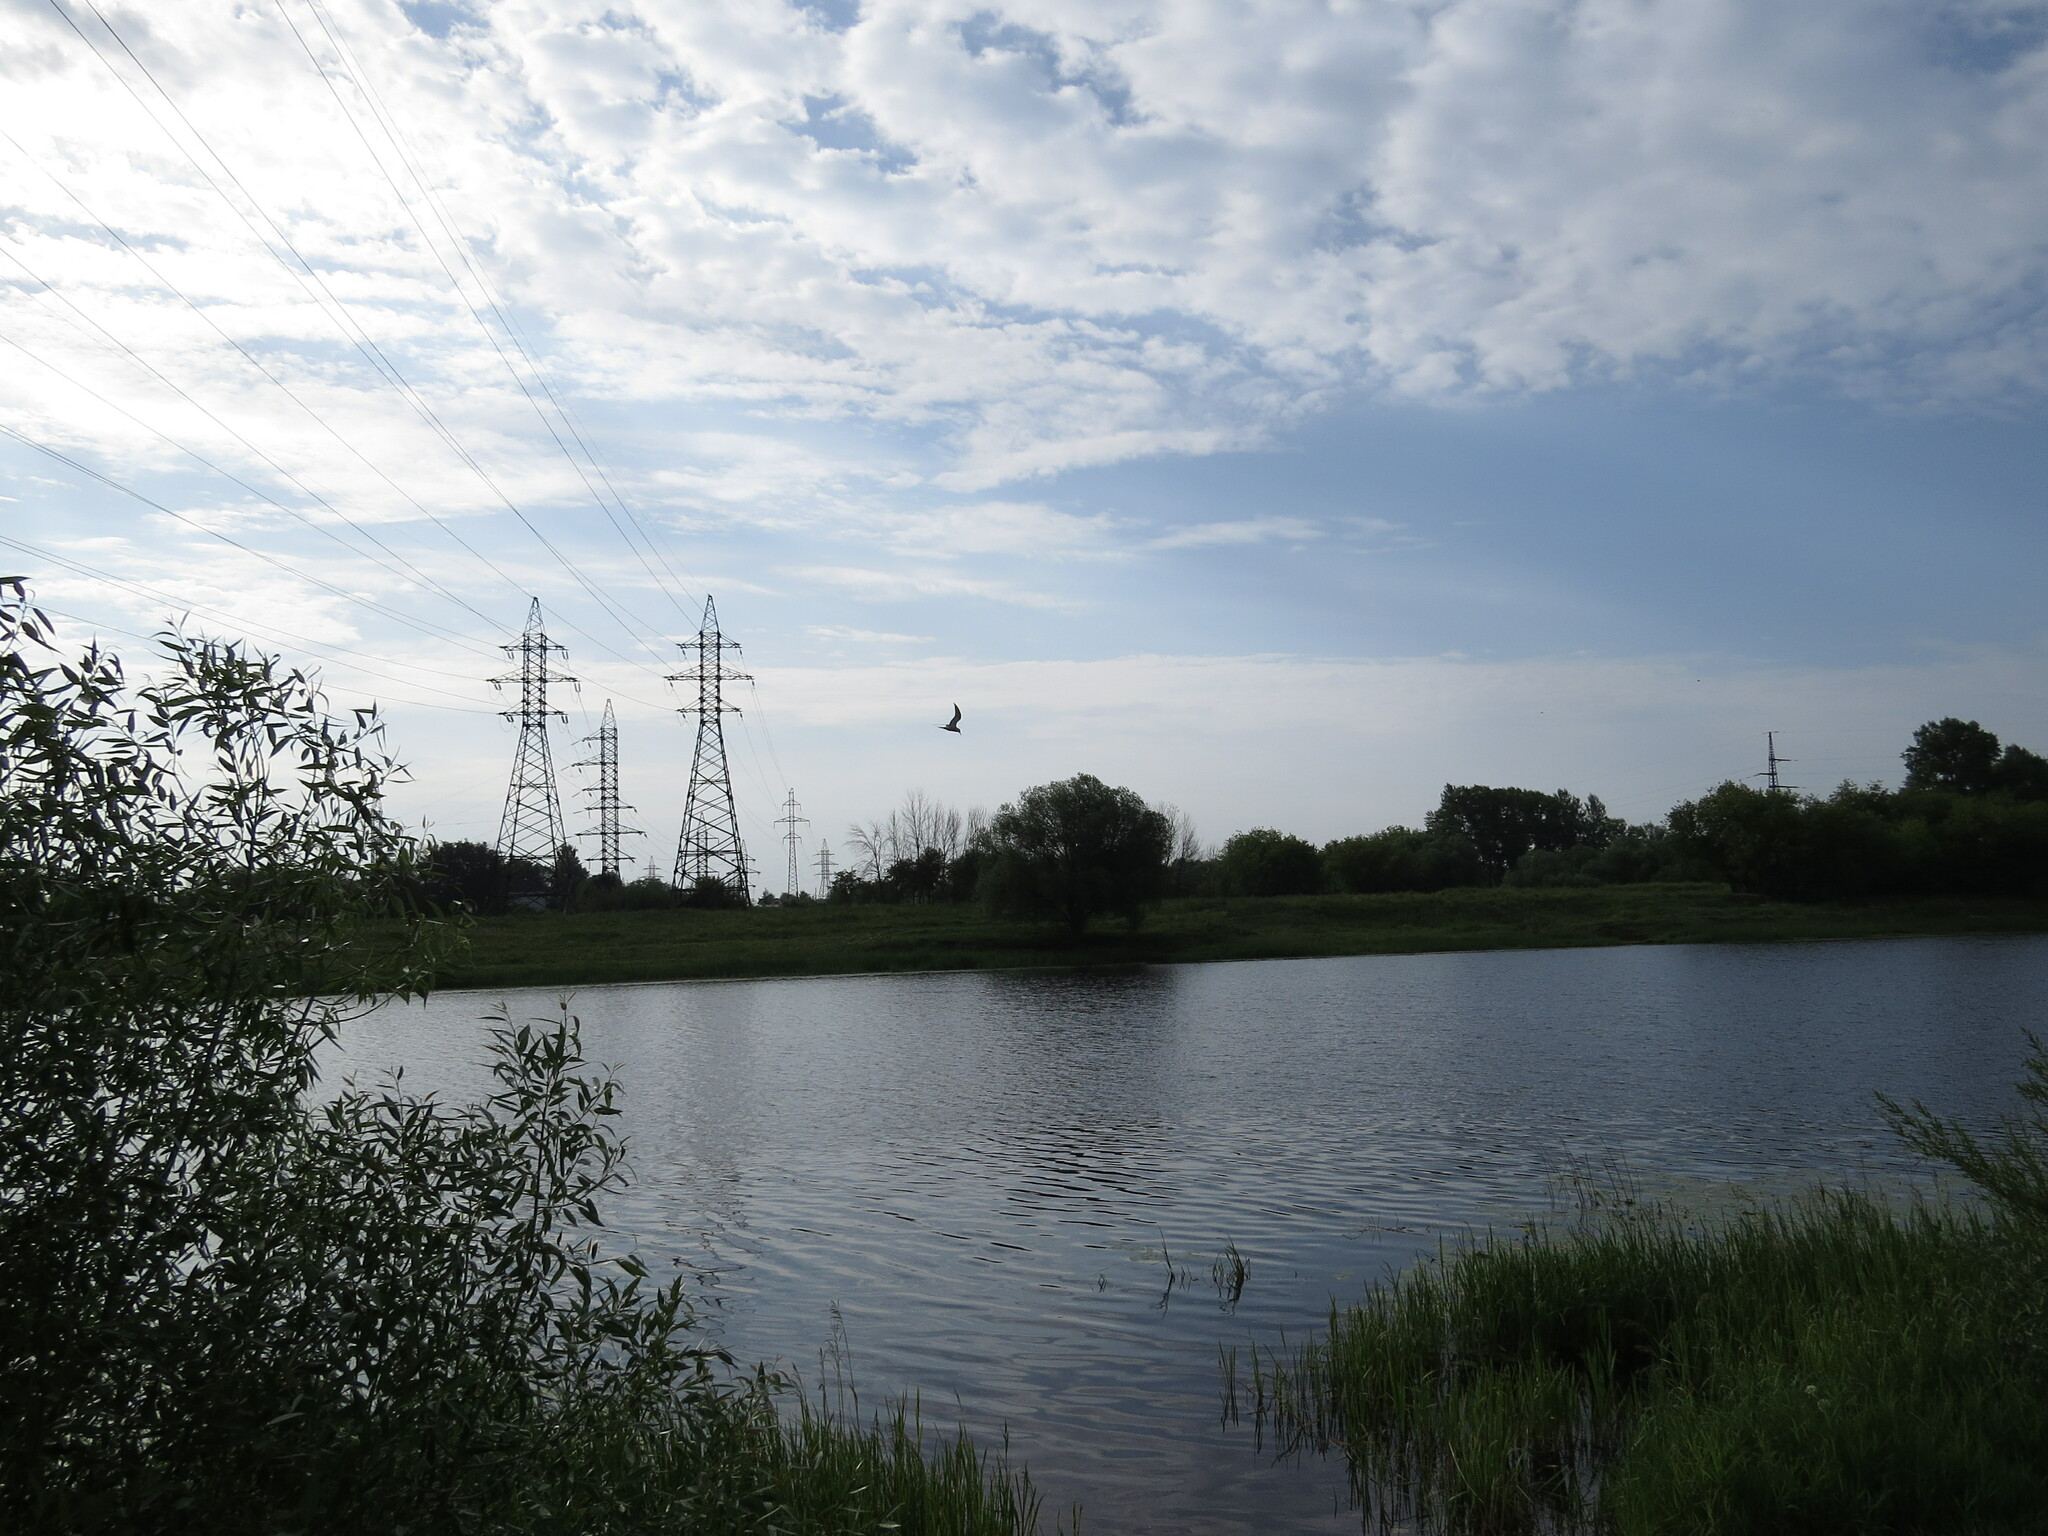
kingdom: Animalia
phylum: Chordata
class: Aves
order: Charadriiformes
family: Laridae
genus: Sterna
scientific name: Sterna hirundo
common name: Common tern
